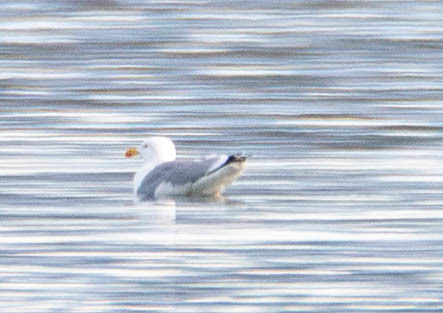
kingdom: Animalia
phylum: Chordata
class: Aves
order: Charadriiformes
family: Laridae
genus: Larus
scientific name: Larus michahellis
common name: Yellow-legged gull
